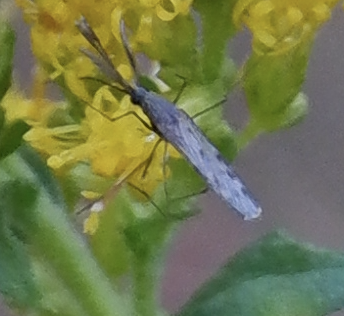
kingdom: Animalia
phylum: Arthropoda
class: Insecta
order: Diptera
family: Culicidae
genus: Anopheles
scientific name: Anopheles
